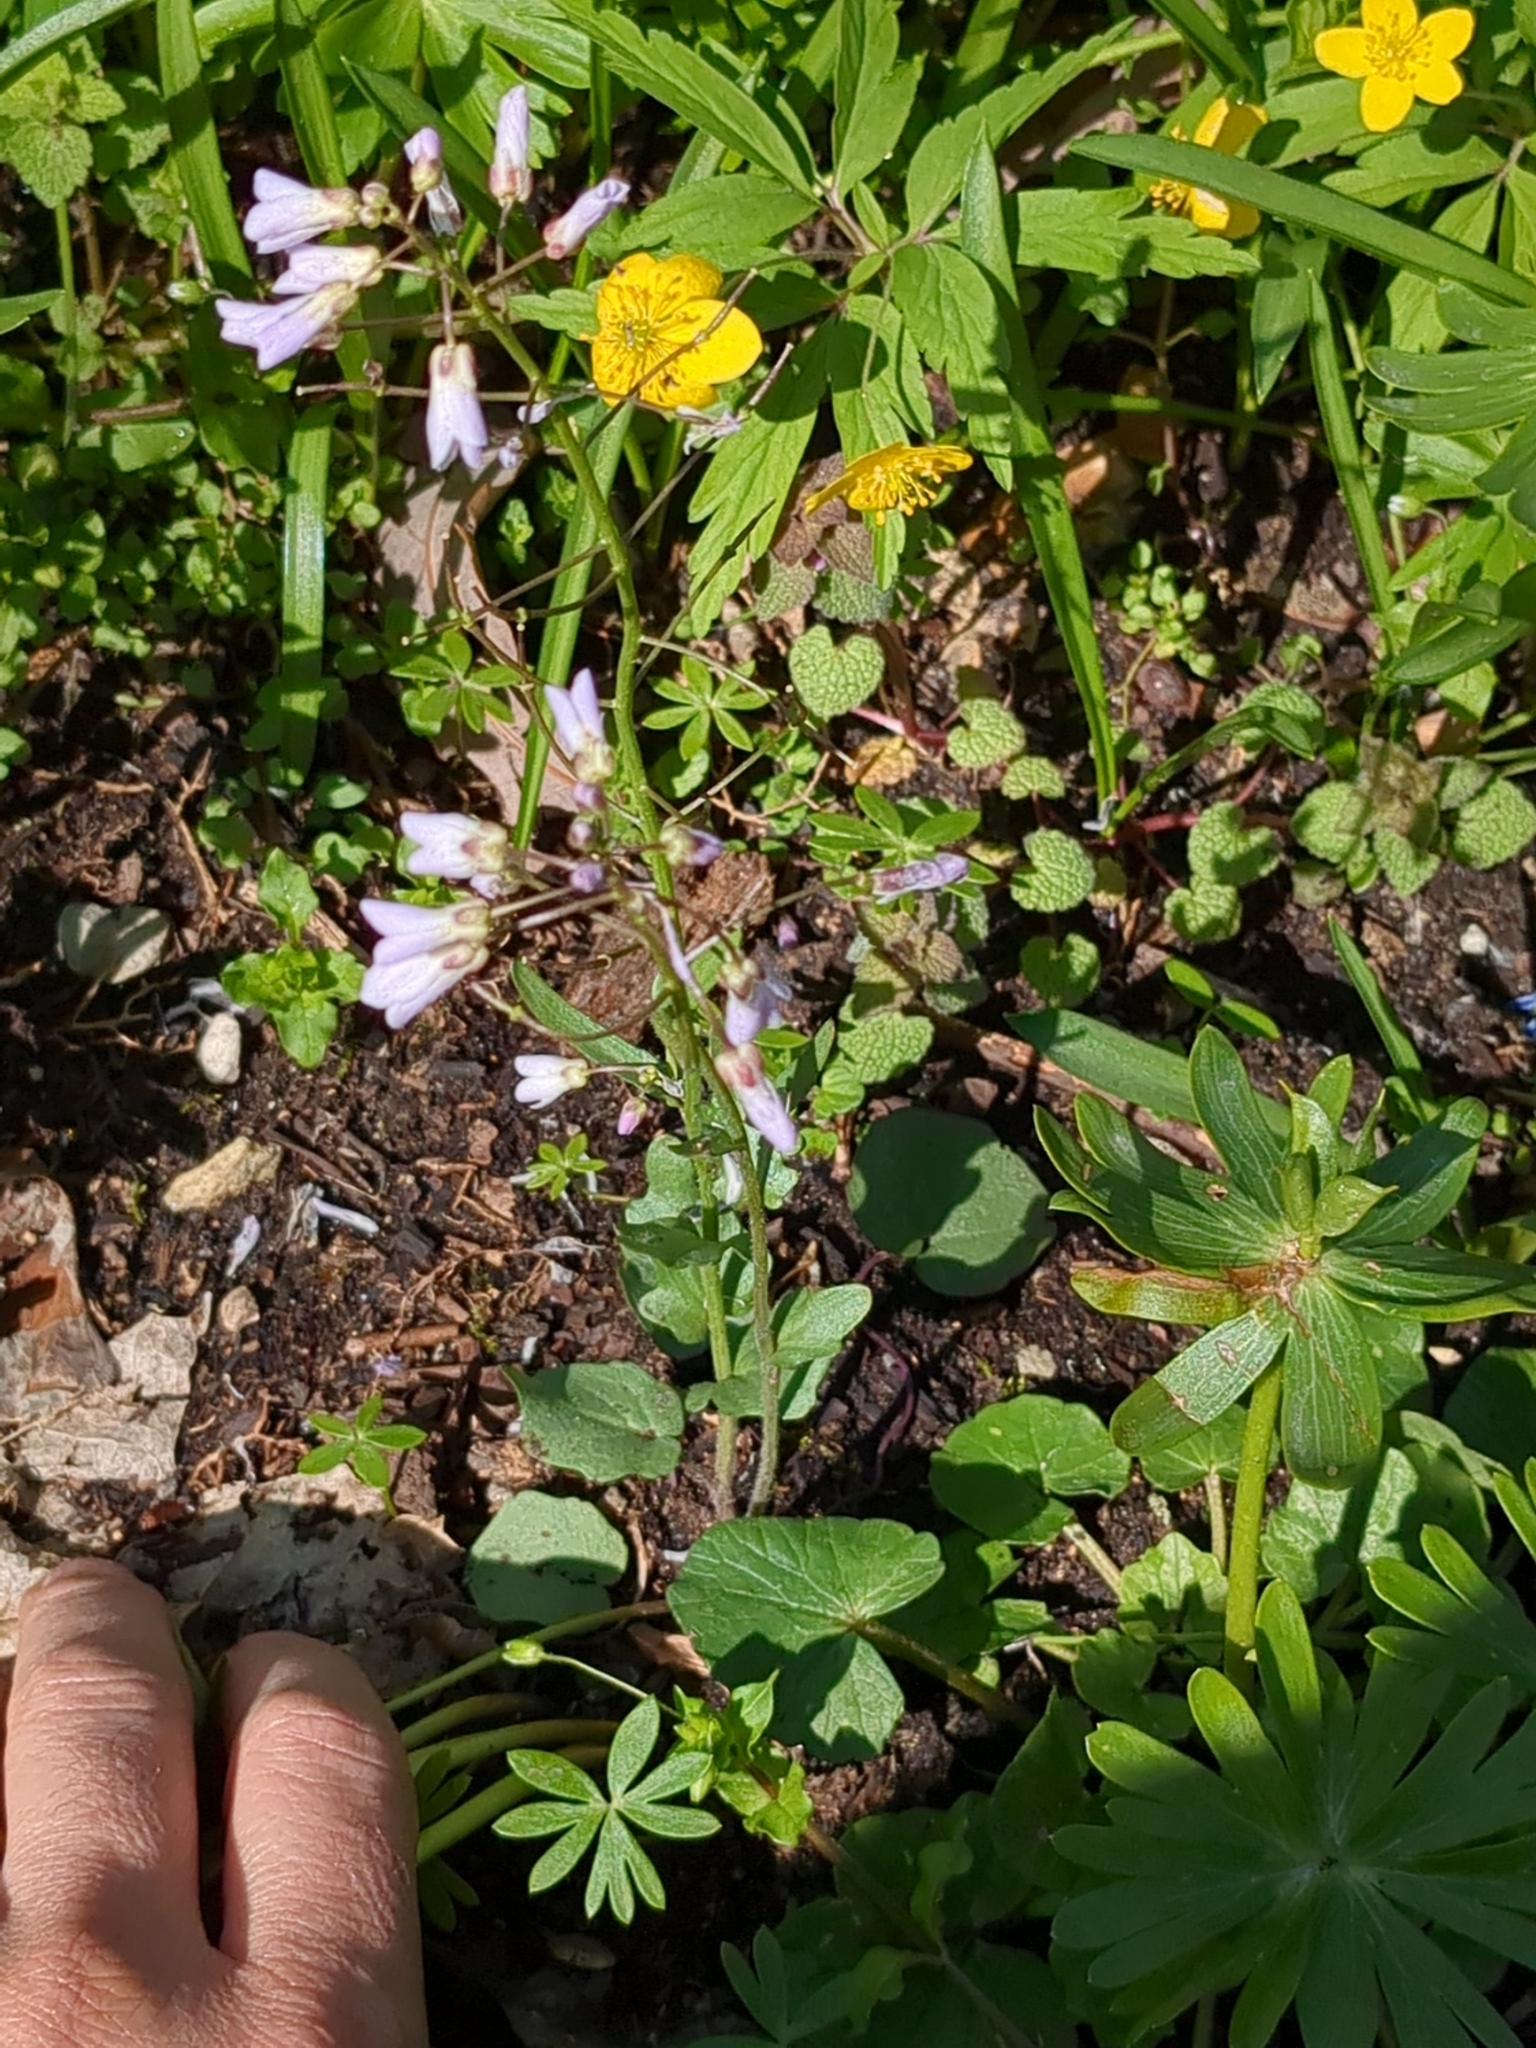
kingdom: Plantae
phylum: Tracheophyta
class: Magnoliopsida
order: Brassicales
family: Brassicaceae
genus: Cardamine
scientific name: Cardamine douglassii
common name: Purple cress
